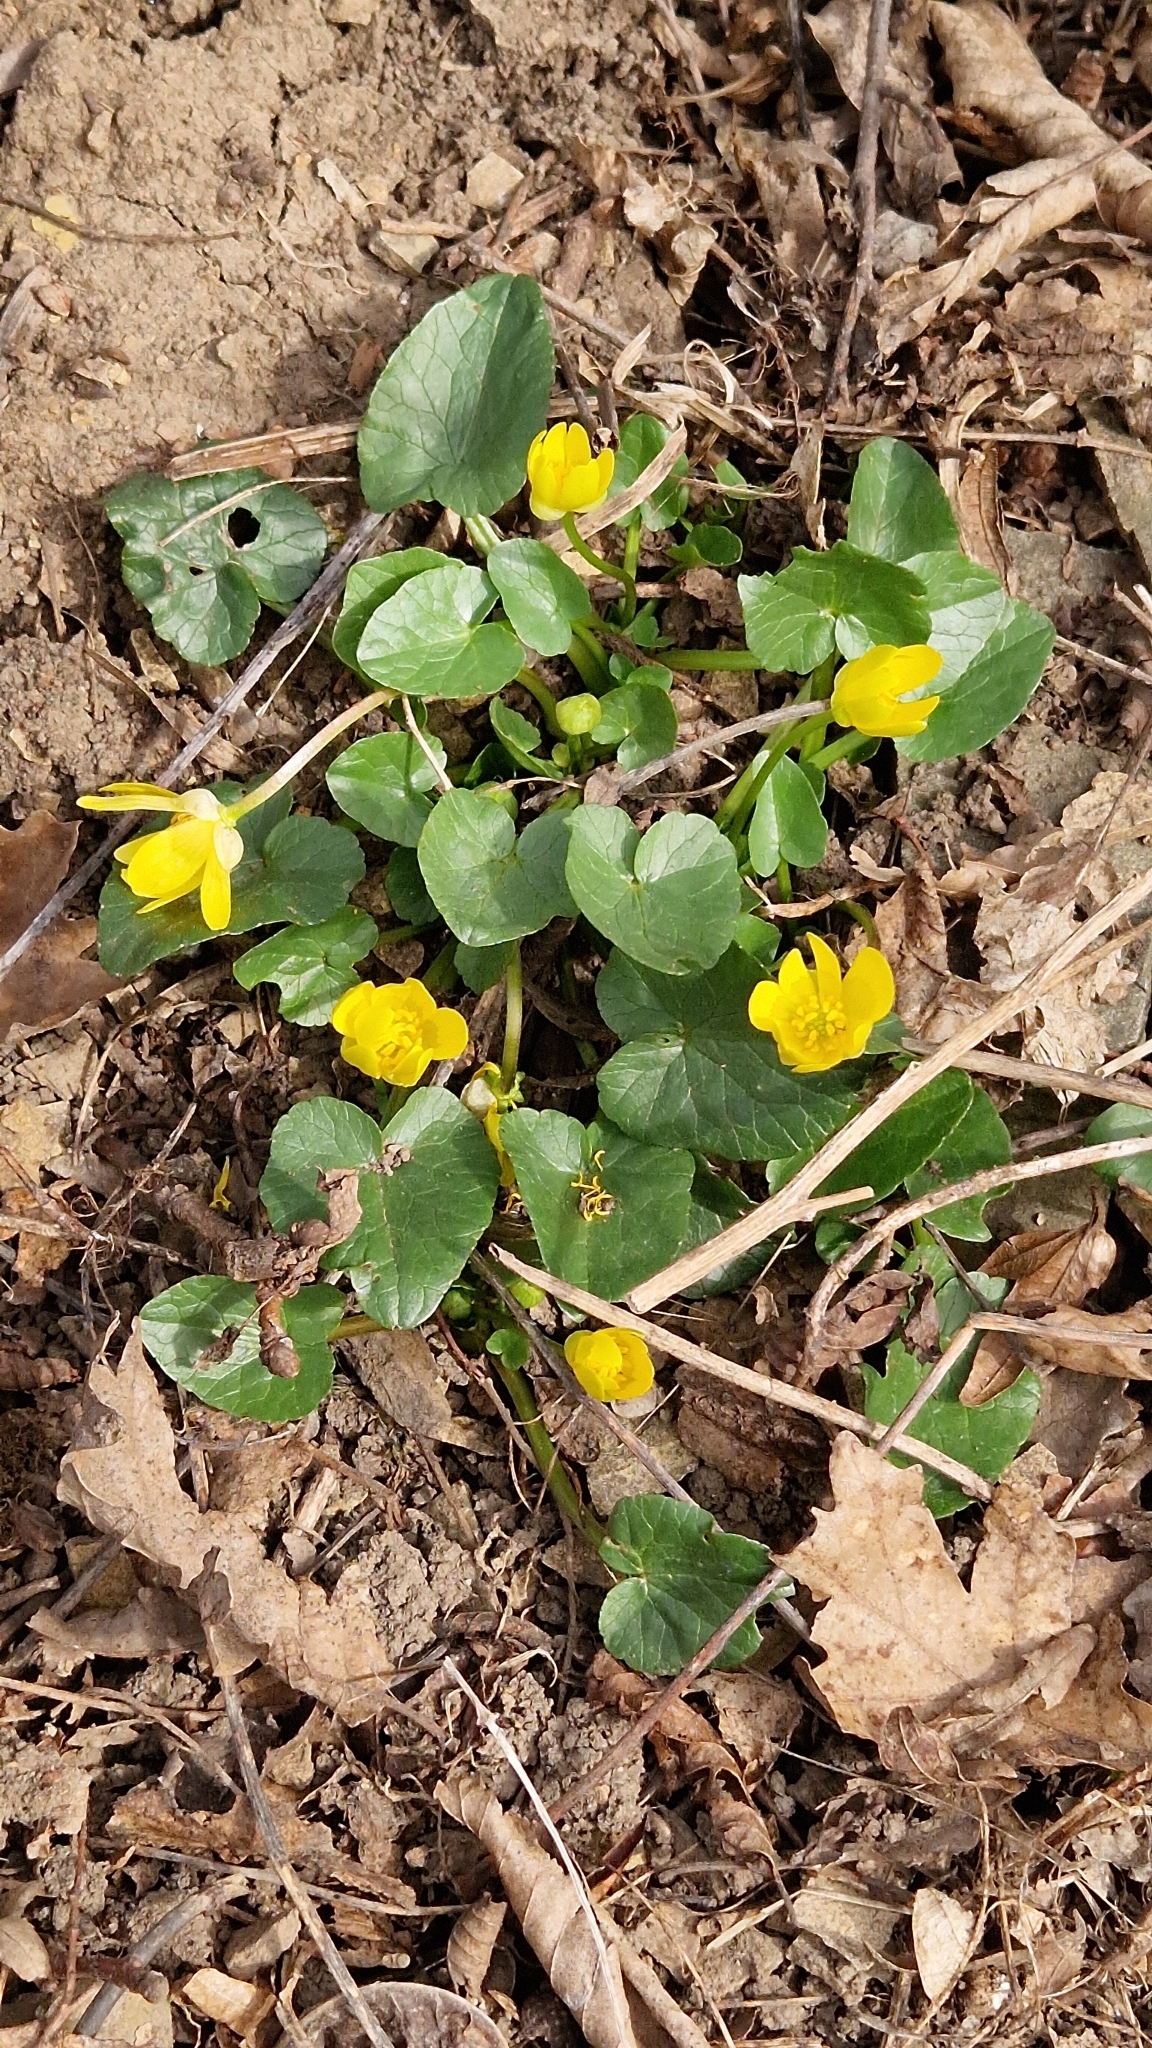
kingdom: Plantae
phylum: Tracheophyta
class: Magnoliopsida
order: Ranunculales
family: Ranunculaceae
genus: Ficaria
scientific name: Ficaria verna
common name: Lesser celandine
